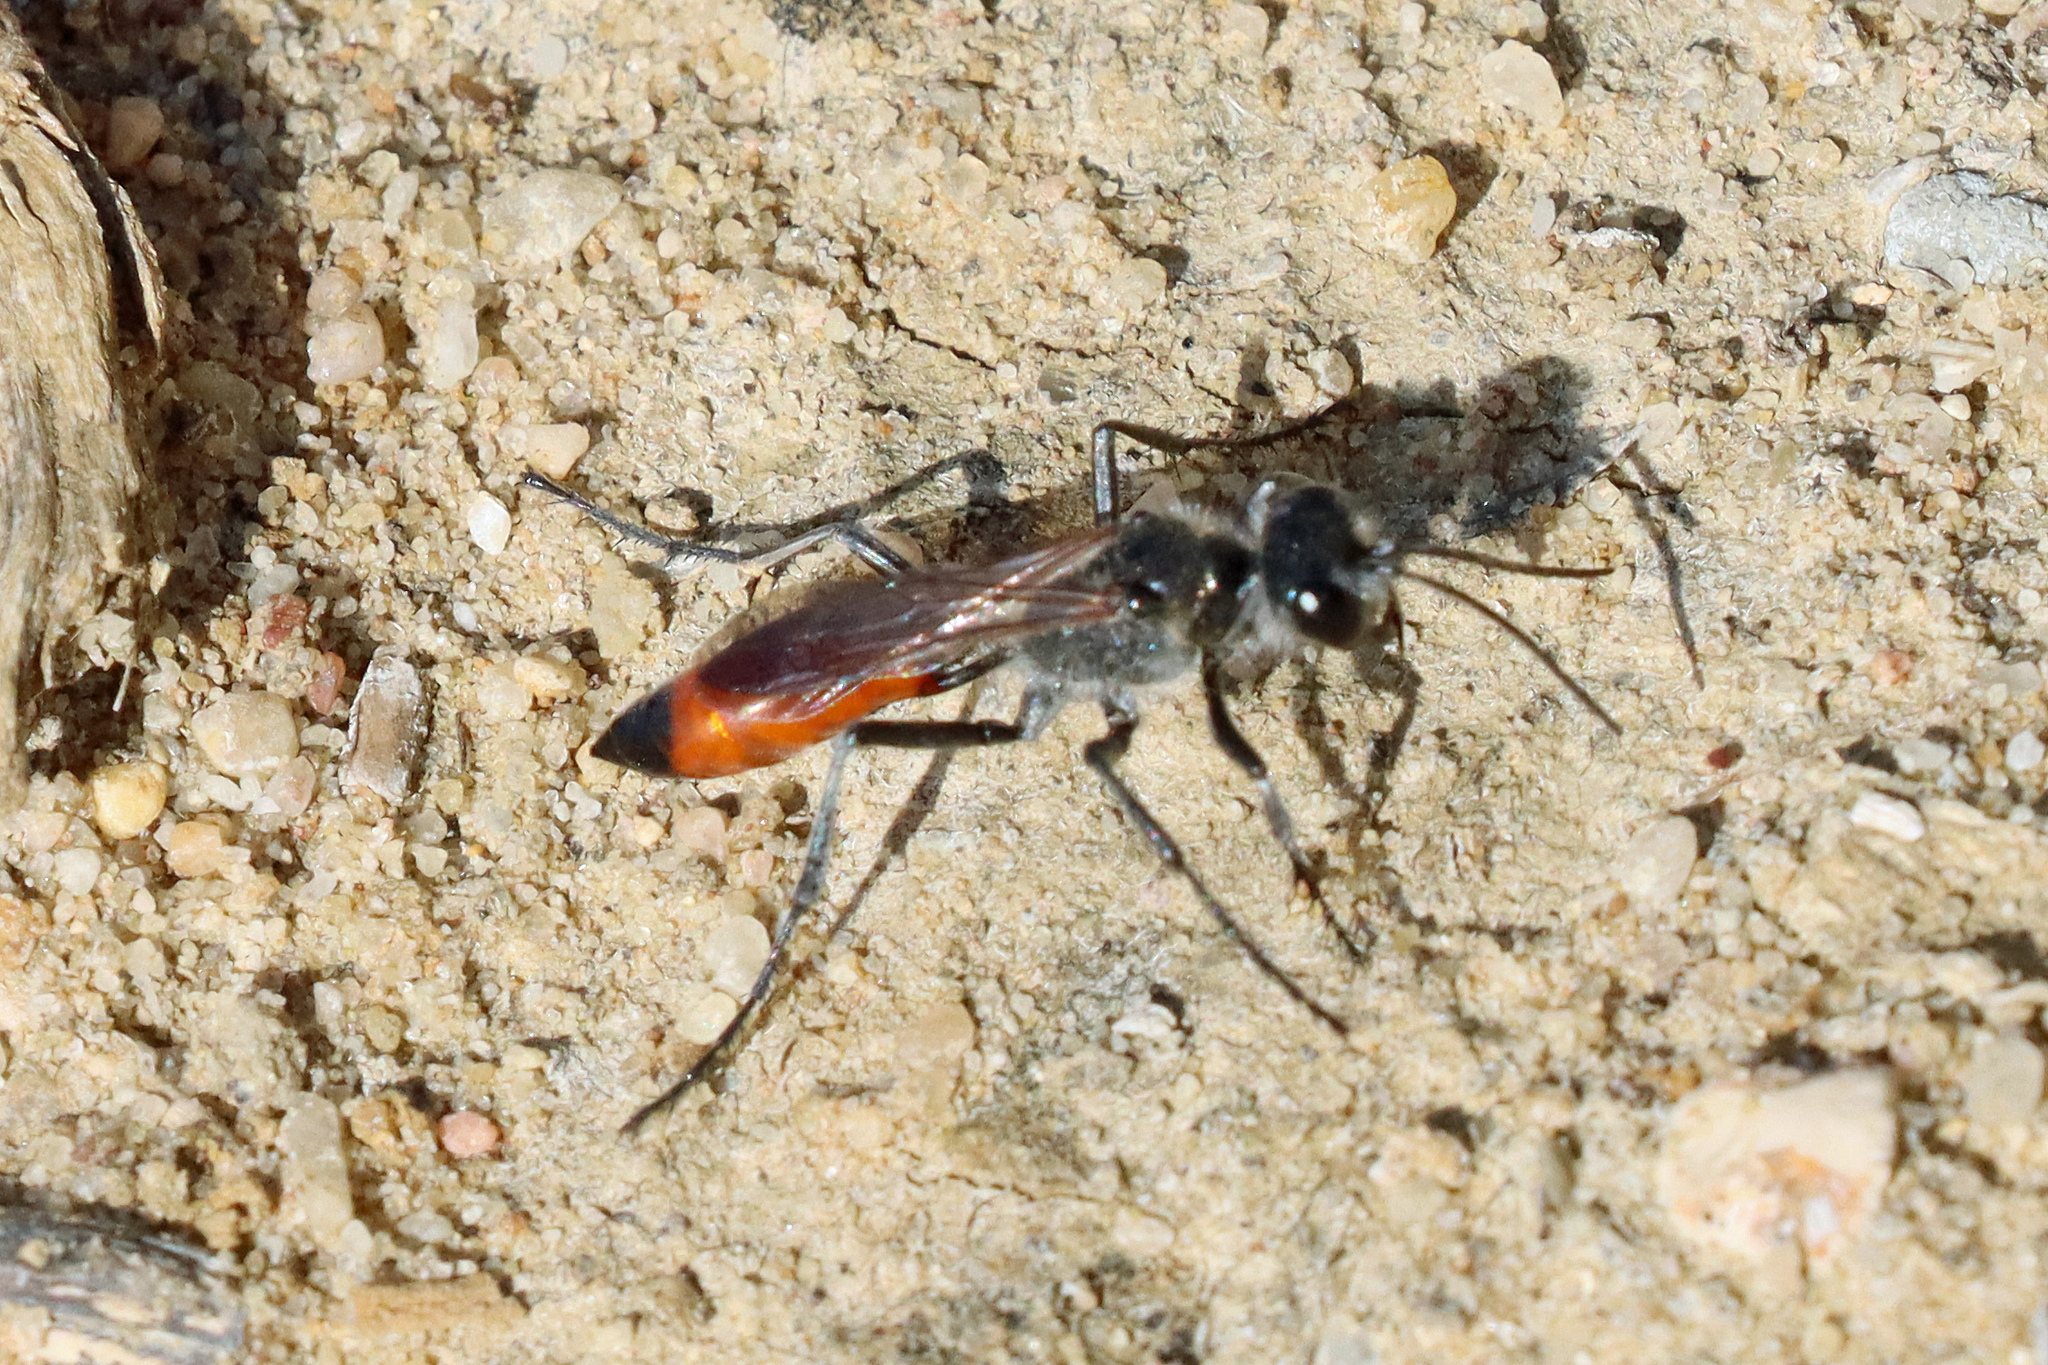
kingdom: Animalia
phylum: Arthropoda
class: Insecta
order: Hymenoptera
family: Sphecidae
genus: Podalonia
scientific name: Podalonia tydei
